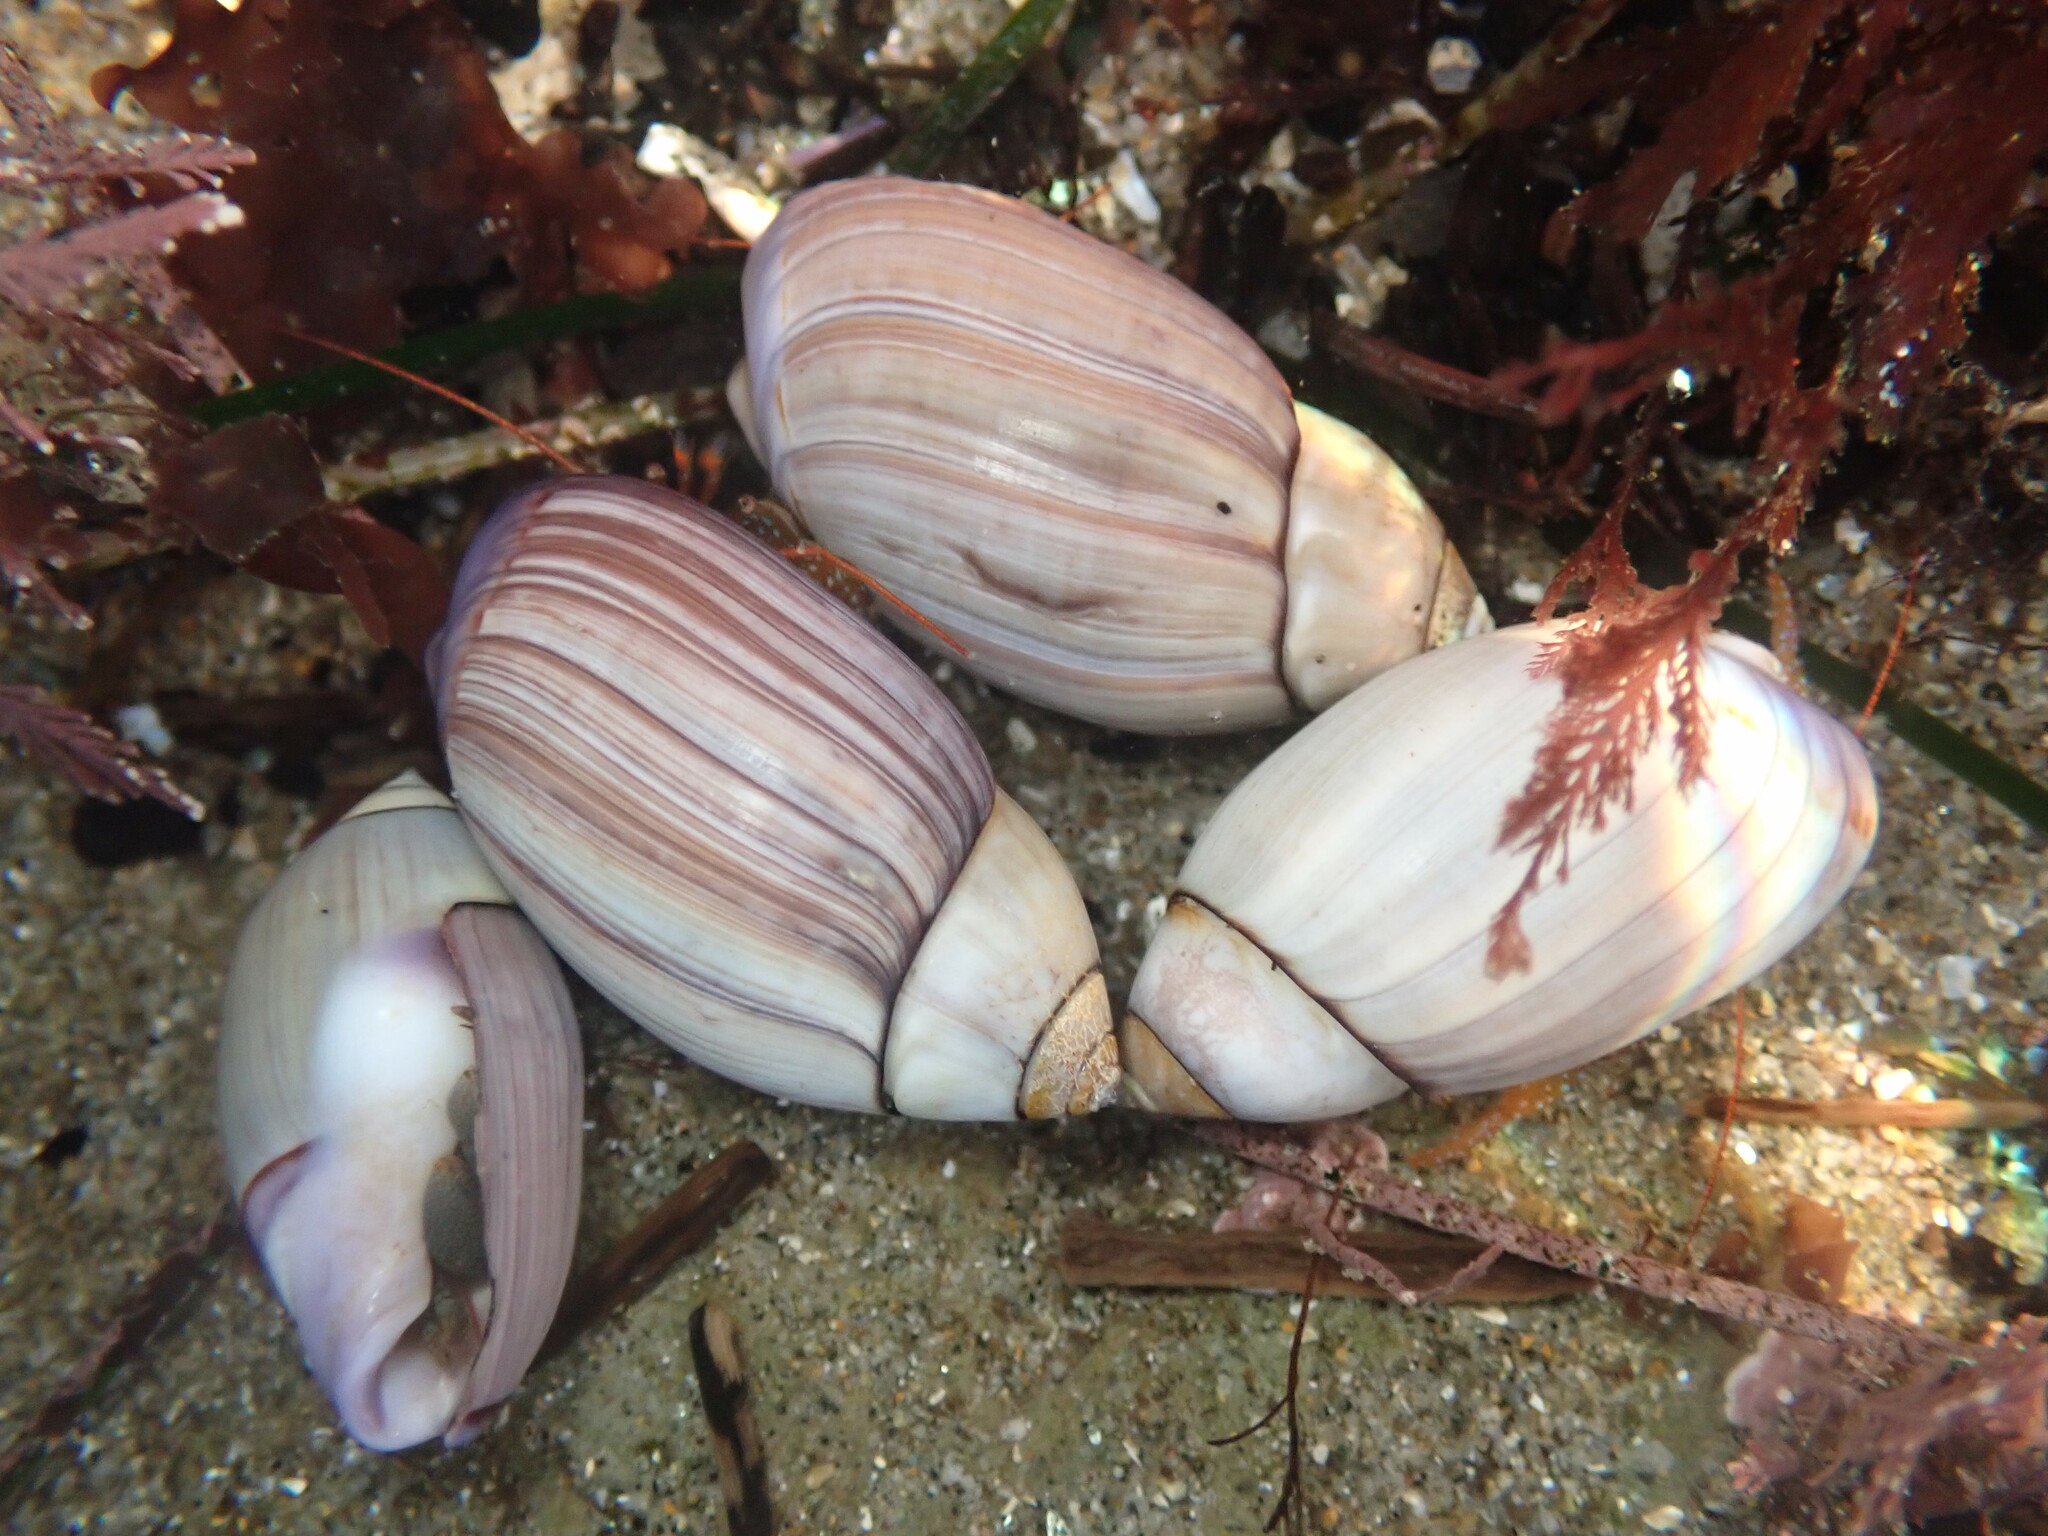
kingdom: Animalia
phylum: Mollusca
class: Gastropoda
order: Neogastropoda
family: Olividae
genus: Callianax
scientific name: Callianax biplicata
